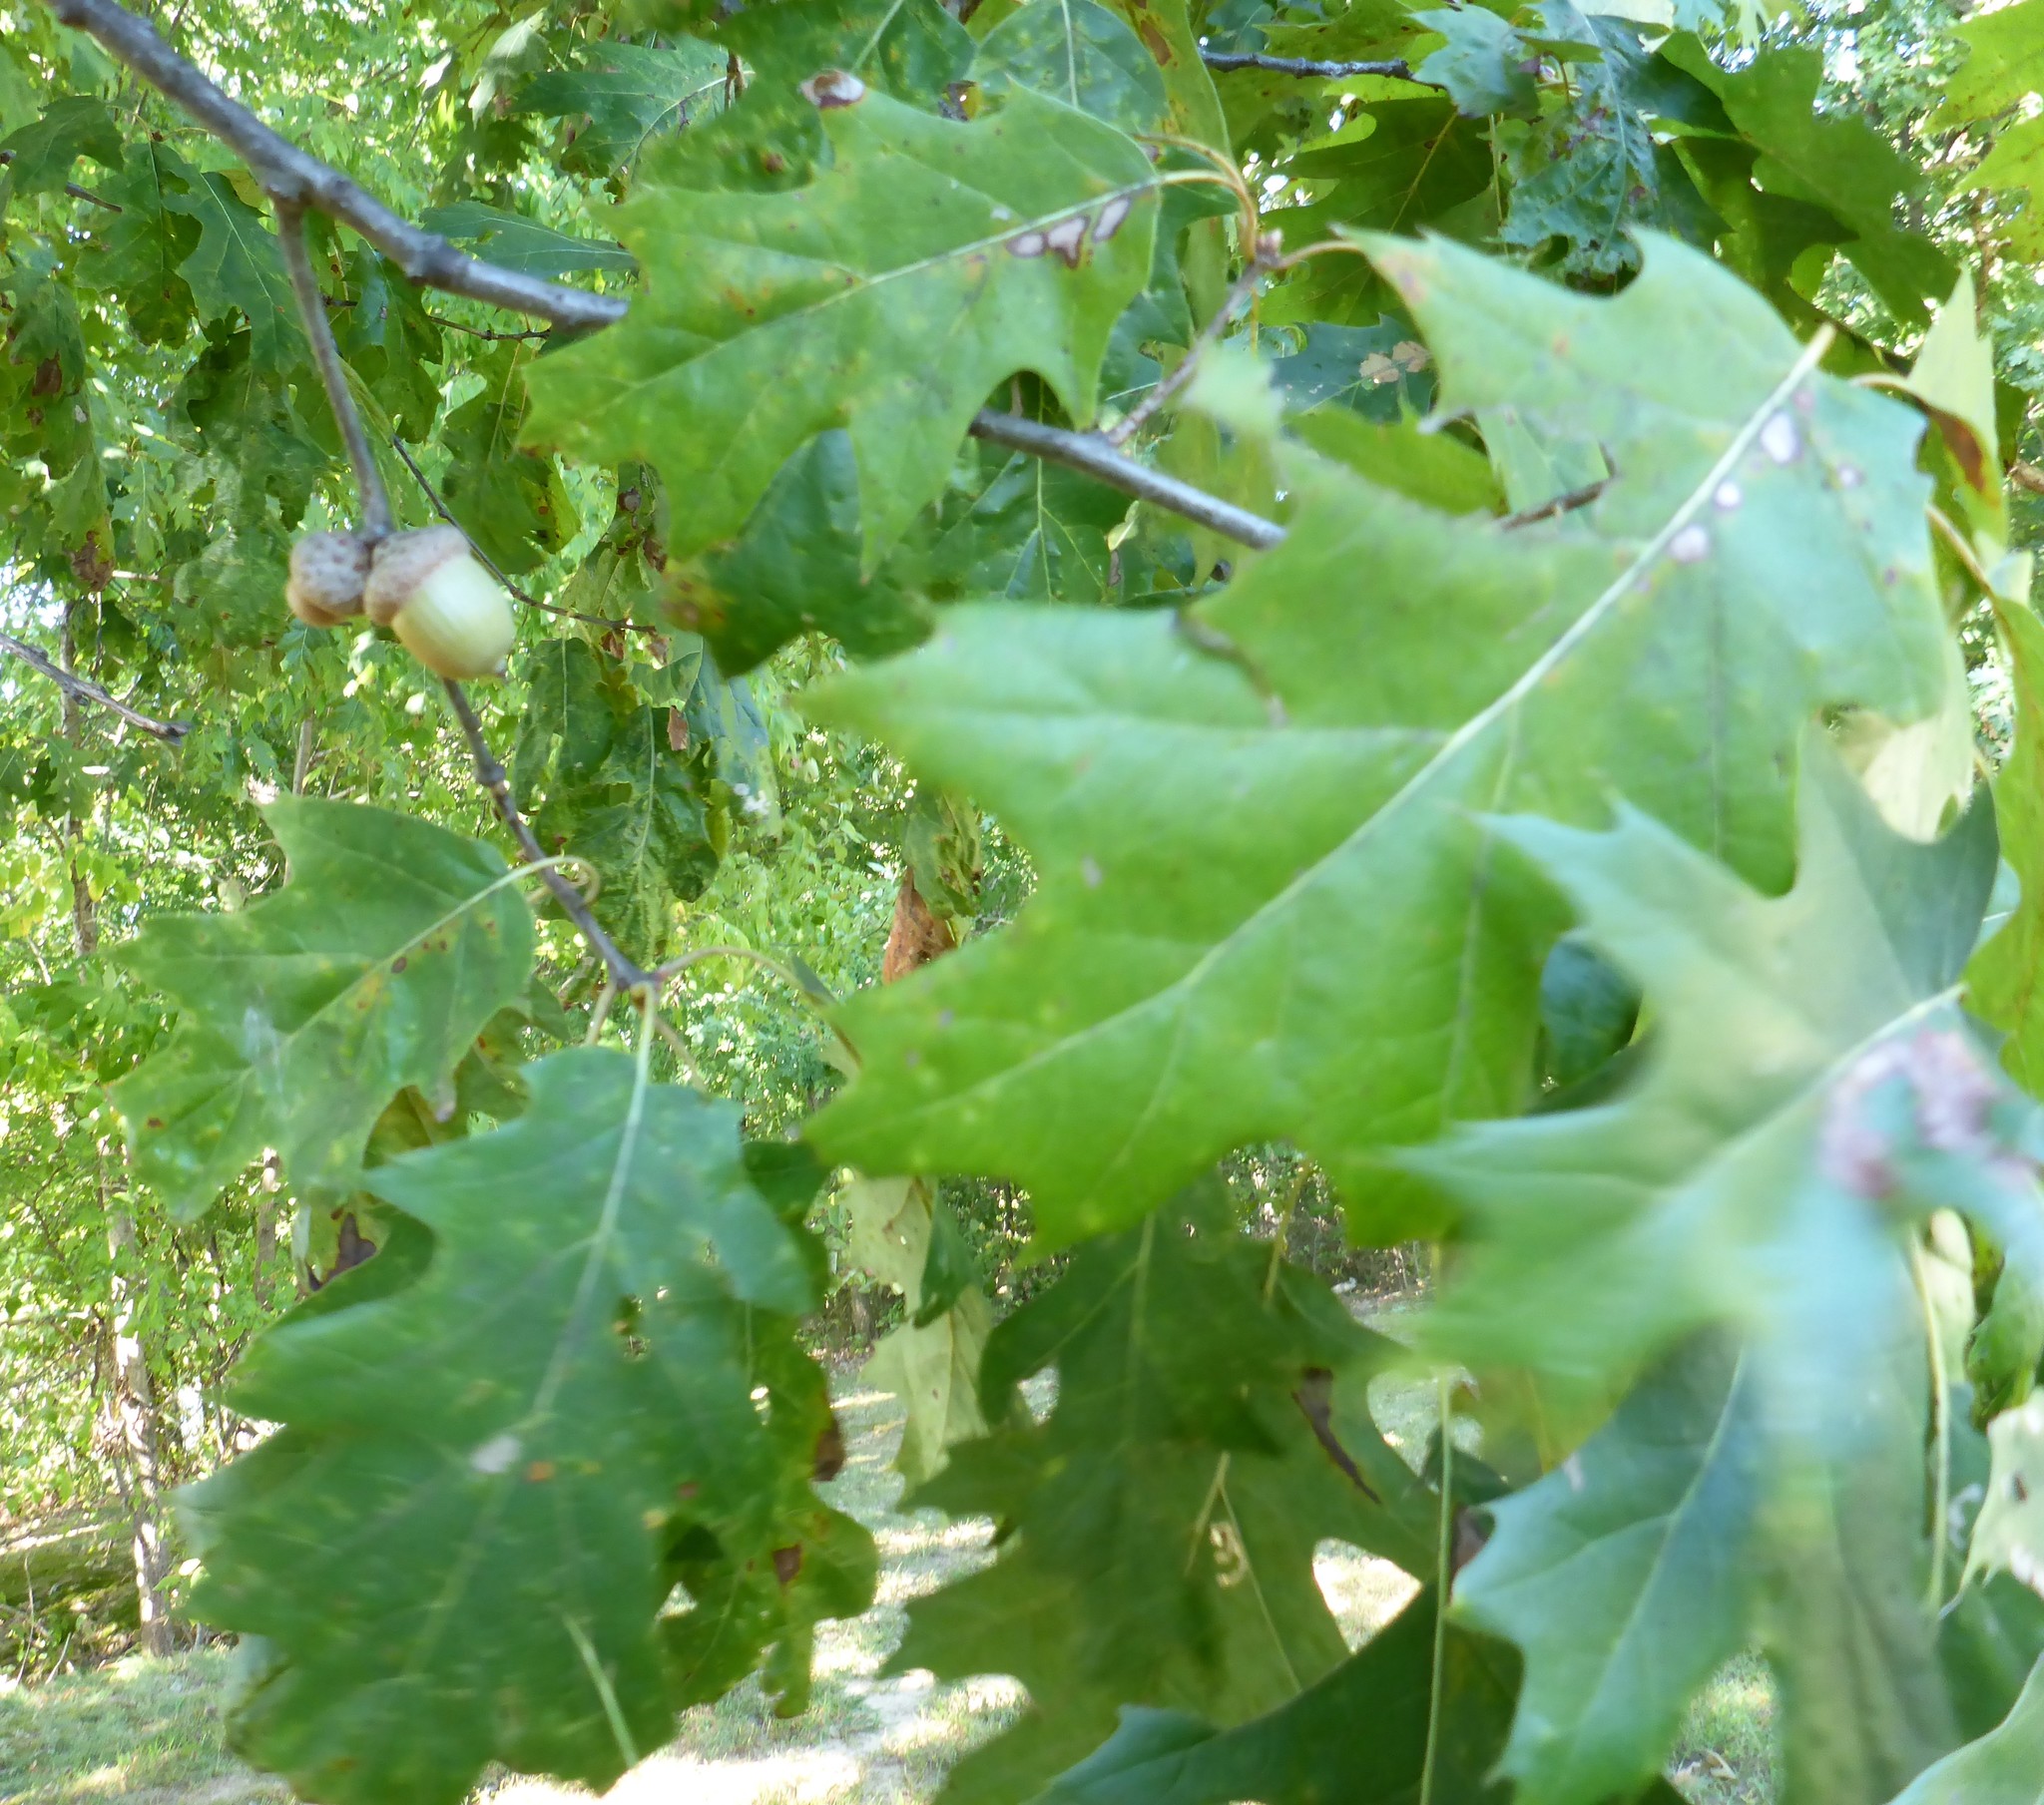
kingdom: Plantae
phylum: Tracheophyta
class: Magnoliopsida
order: Fagales
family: Fagaceae
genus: Quercus
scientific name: Quercus rubra
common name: Red oak
